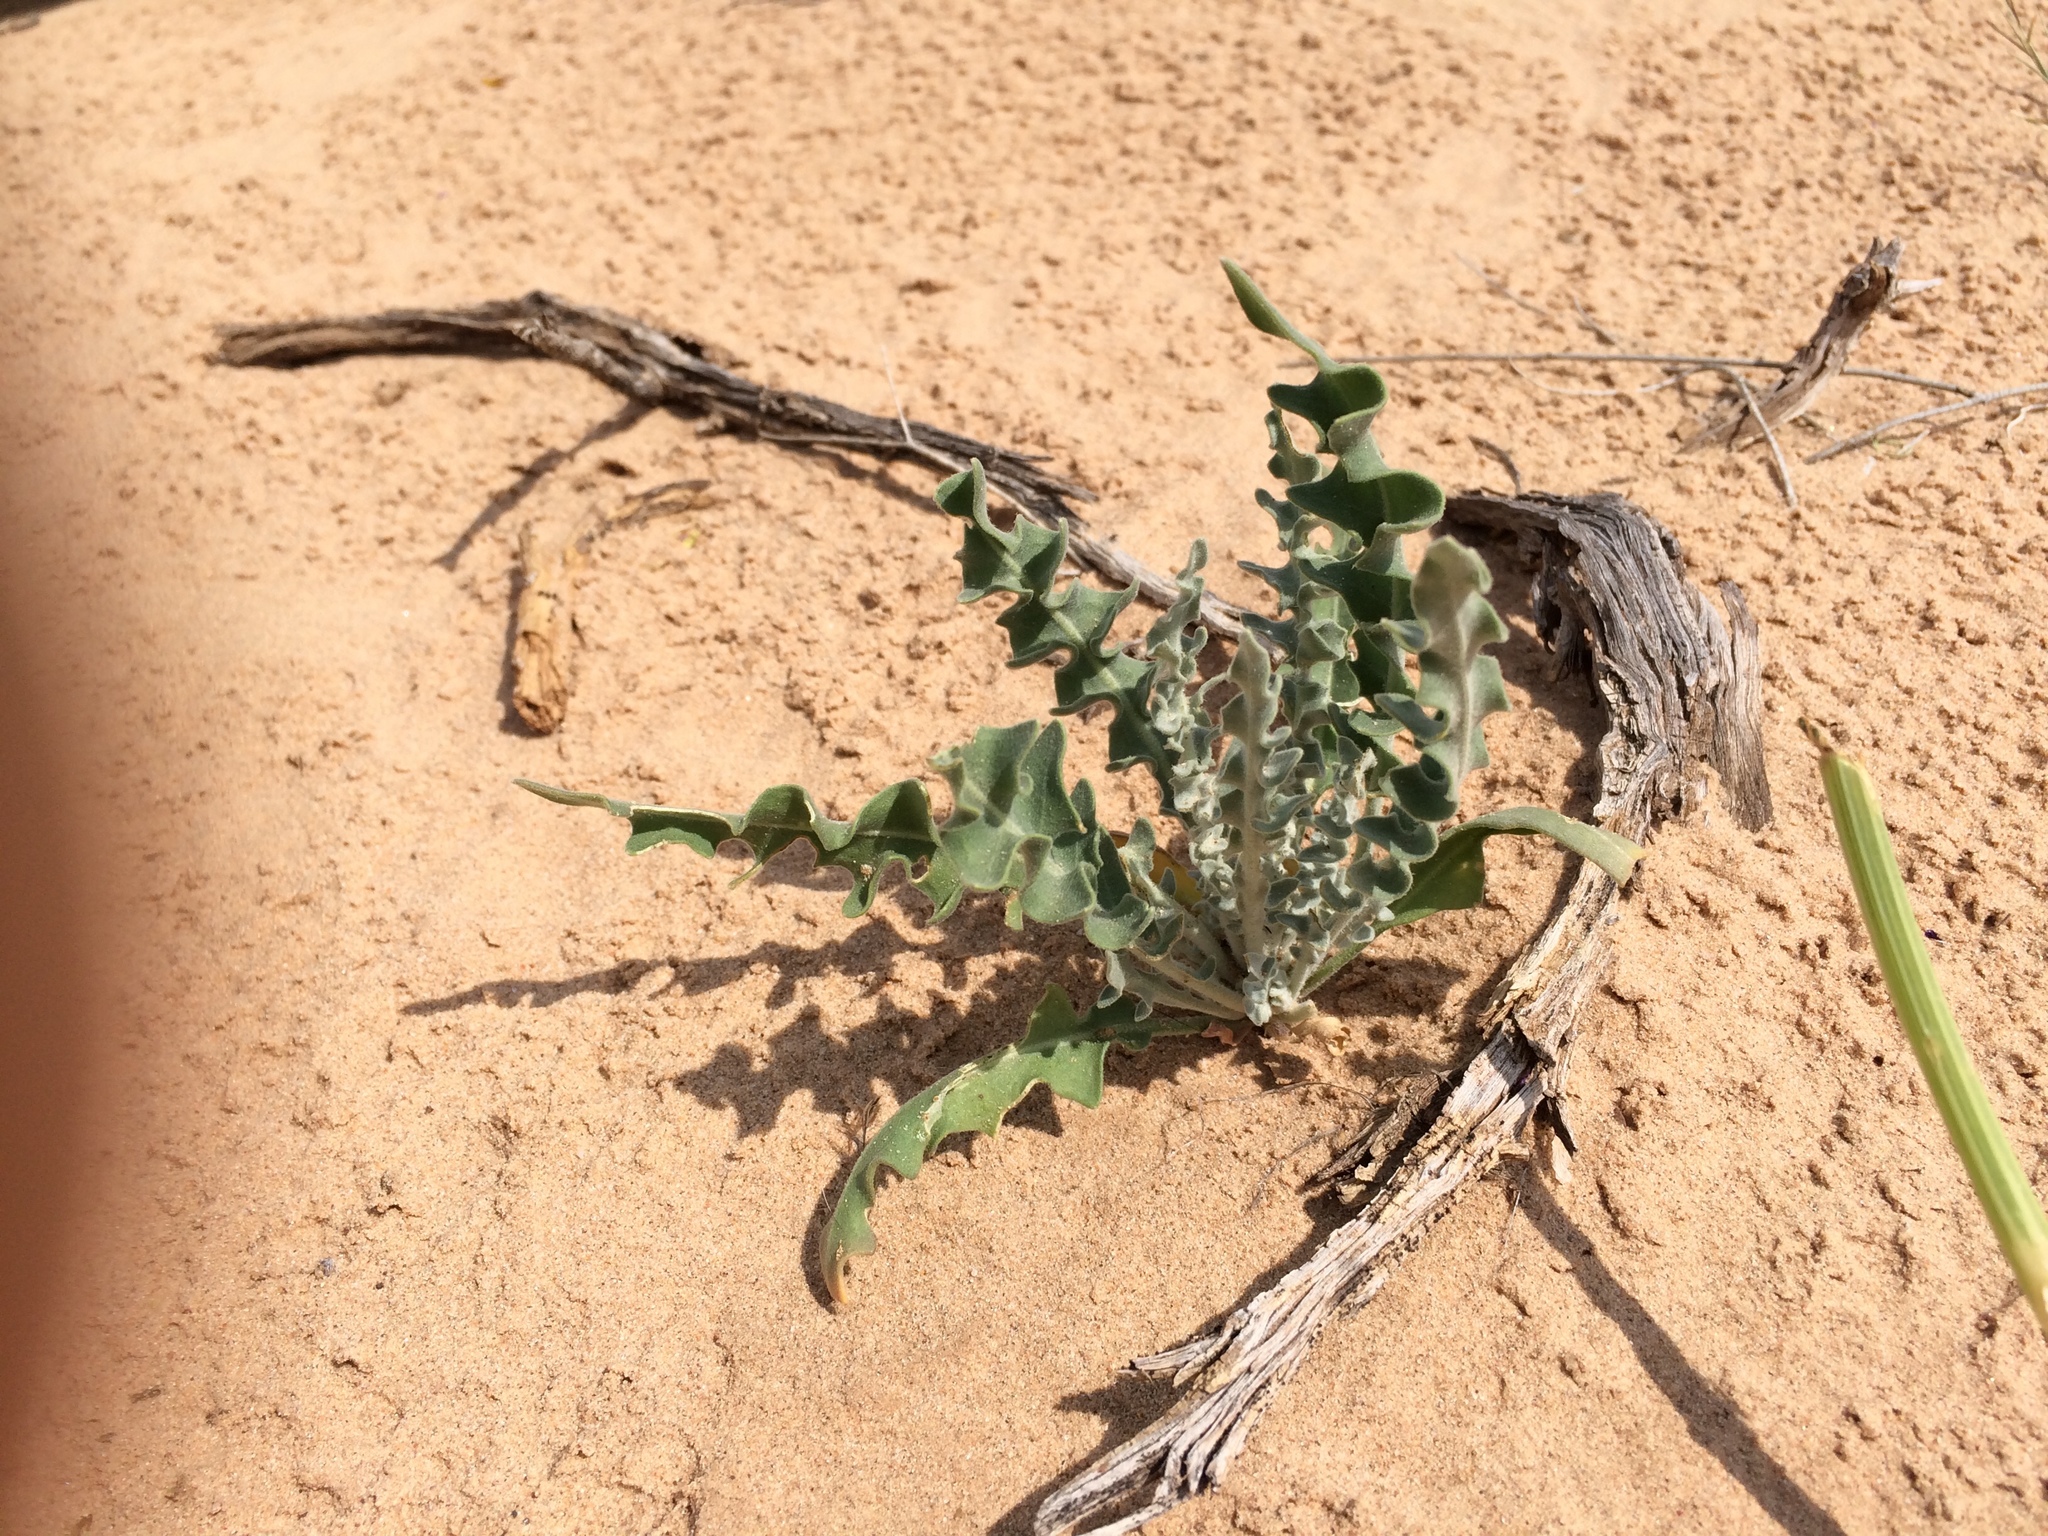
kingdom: Plantae
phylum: Tracheophyta
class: Magnoliopsida
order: Brassicales
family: Brassicaceae
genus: Dimorphocarpa
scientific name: Dimorphocarpa wislizenii
